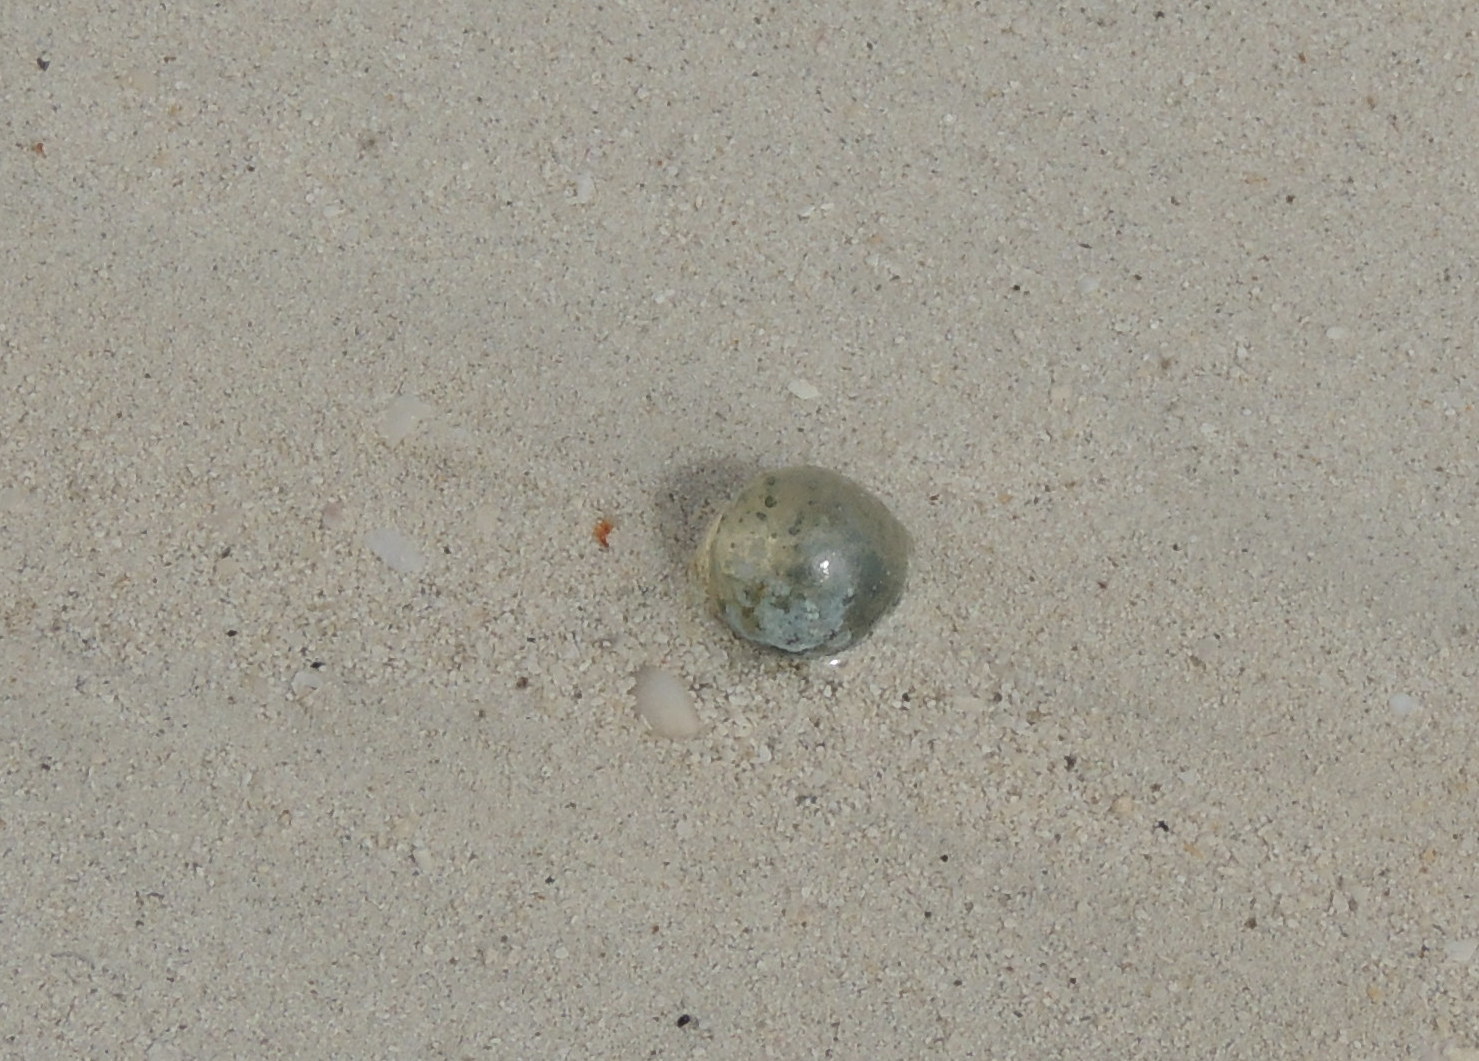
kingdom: Plantae
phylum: Chlorophyta
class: Ulvophyceae
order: Siphonocladales
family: Valoniaceae
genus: Valonia
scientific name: Valonia ventricosa
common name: Sea pearl
